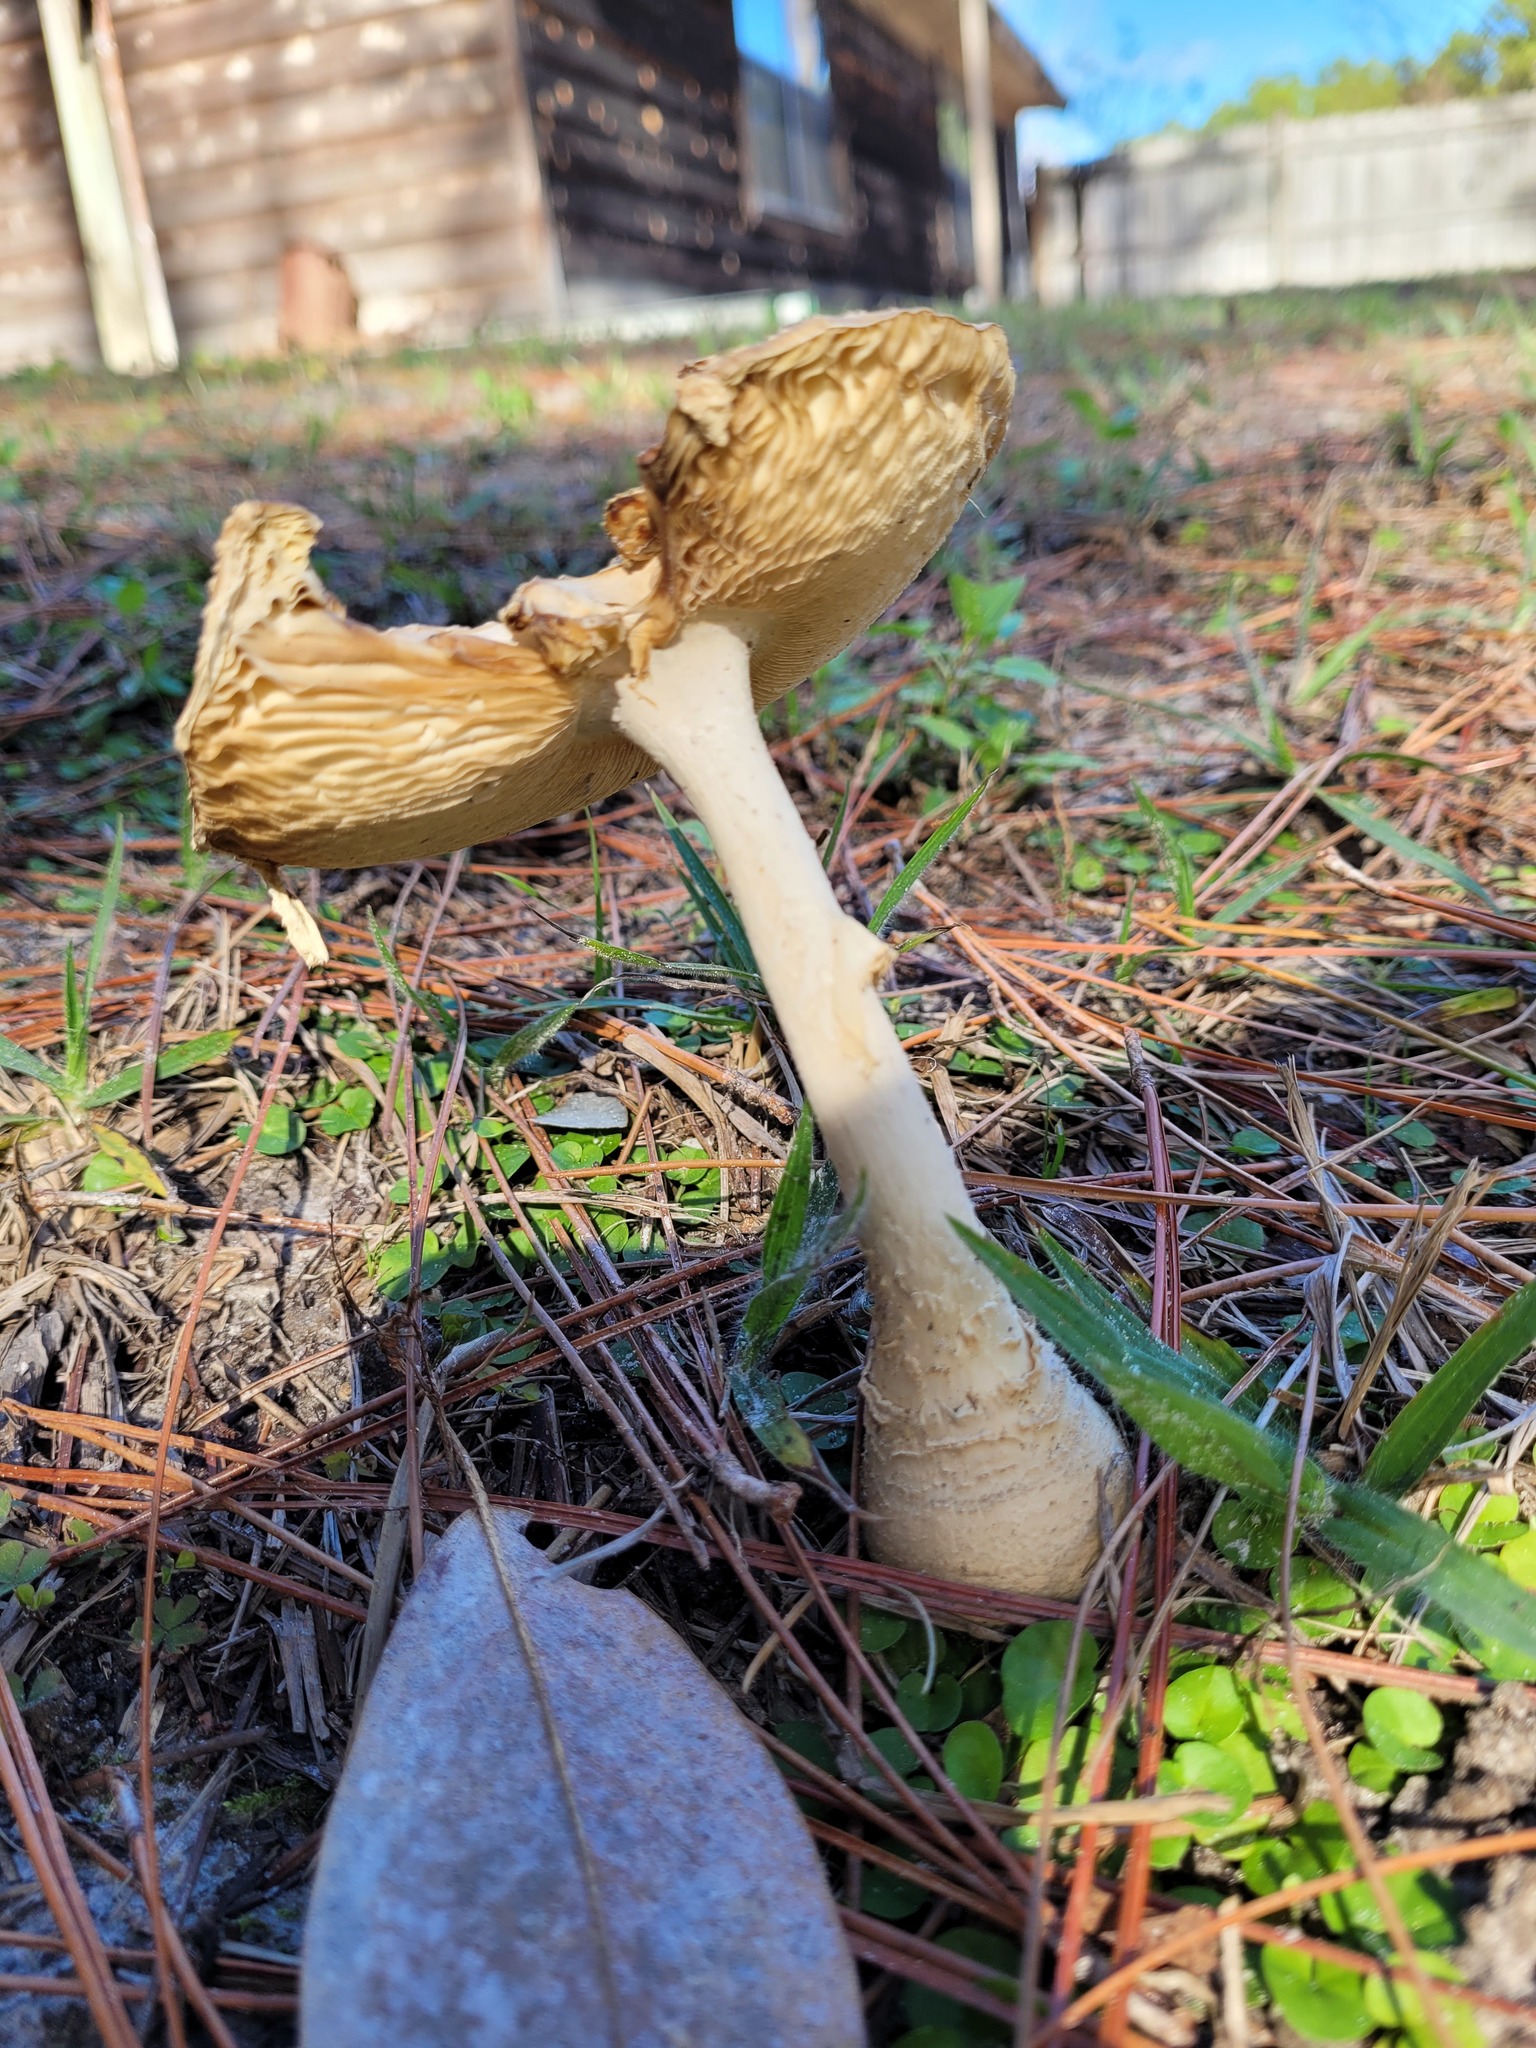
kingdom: Fungi
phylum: Basidiomycota
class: Agaricomycetes
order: Agaricales
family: Amanitaceae
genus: Amanita
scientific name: Amanita persicina
